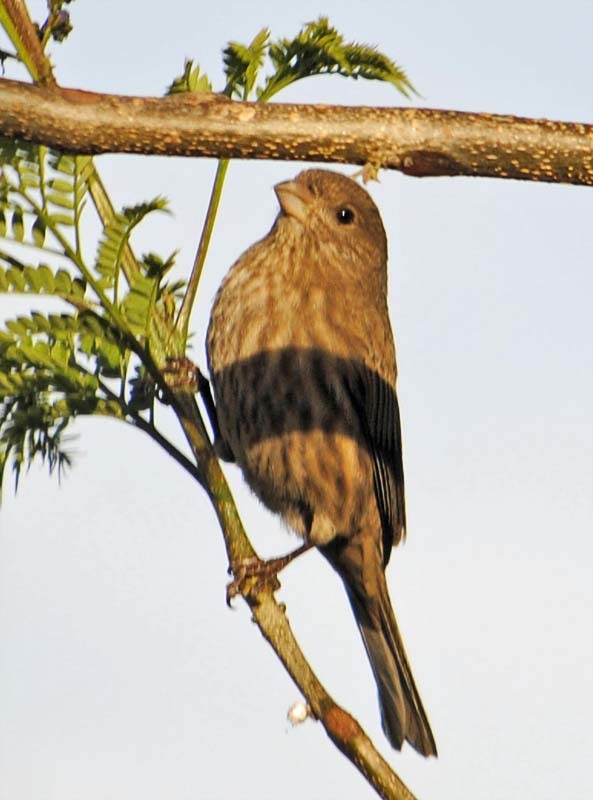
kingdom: Animalia
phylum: Chordata
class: Aves
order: Passeriformes
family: Fringillidae
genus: Haemorhous
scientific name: Haemorhous mexicanus
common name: House finch
